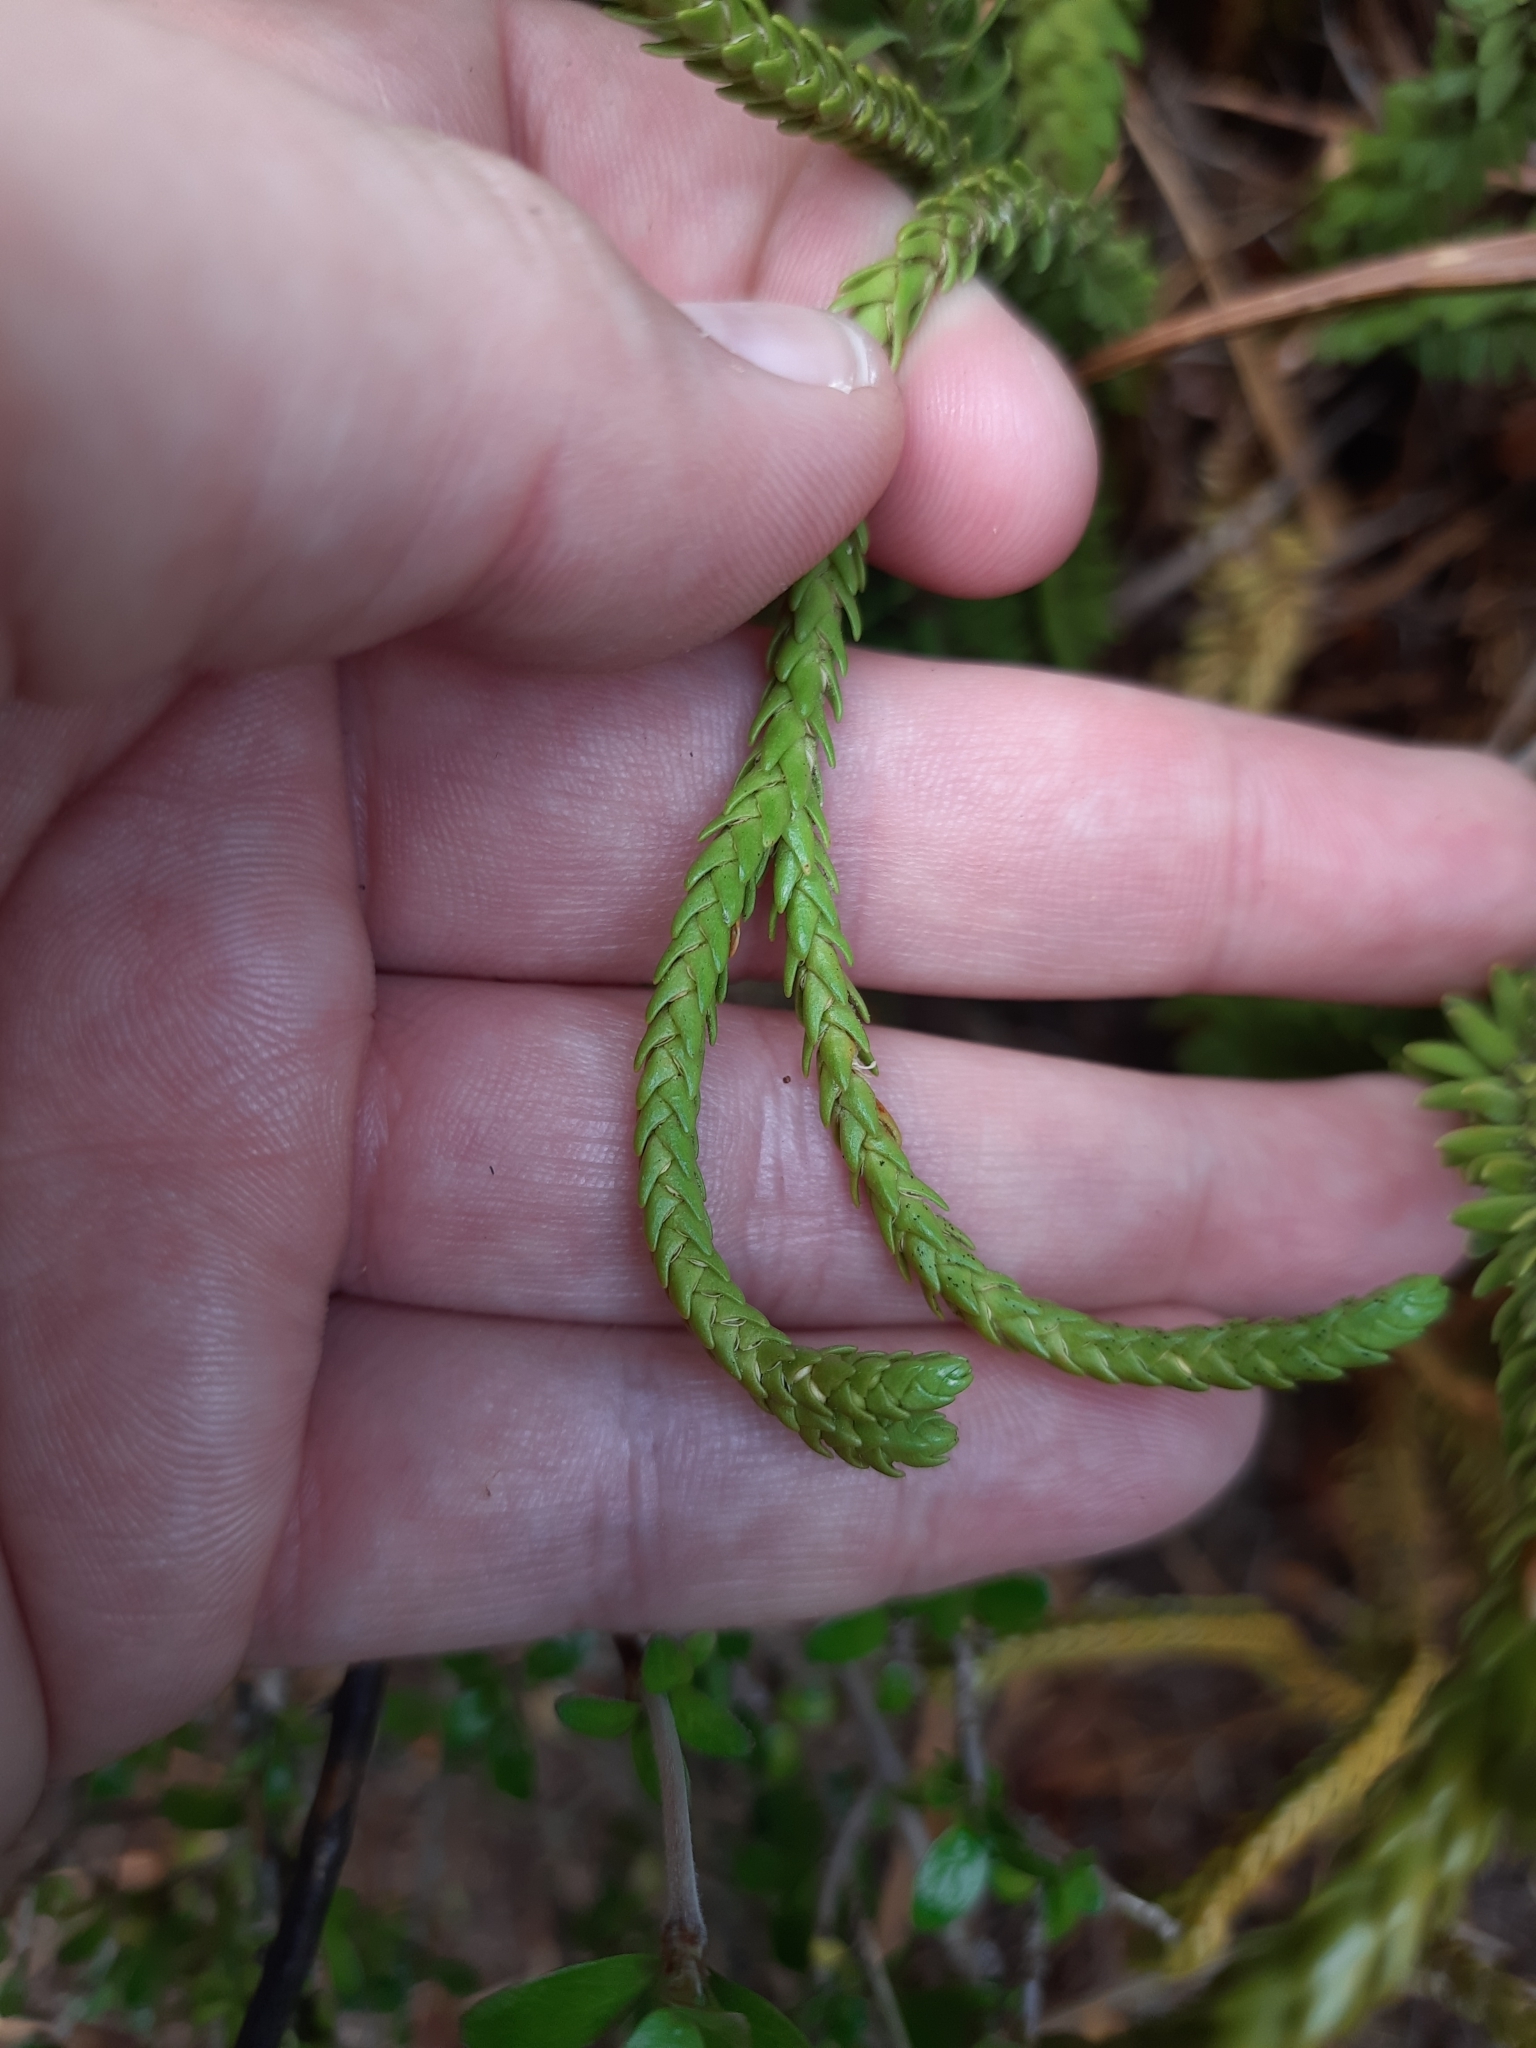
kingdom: Plantae
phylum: Tracheophyta
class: Lycopodiopsida
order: Lycopodiales
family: Lycopodiaceae
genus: Phlegmariurus
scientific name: Phlegmariurus varius
